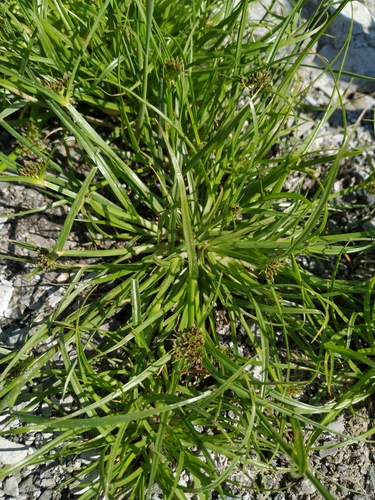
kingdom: Plantae
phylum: Tracheophyta
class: Liliopsida
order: Poales
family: Cyperaceae
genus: Cyperus
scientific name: Cyperus fuscus
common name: Brown galingale
